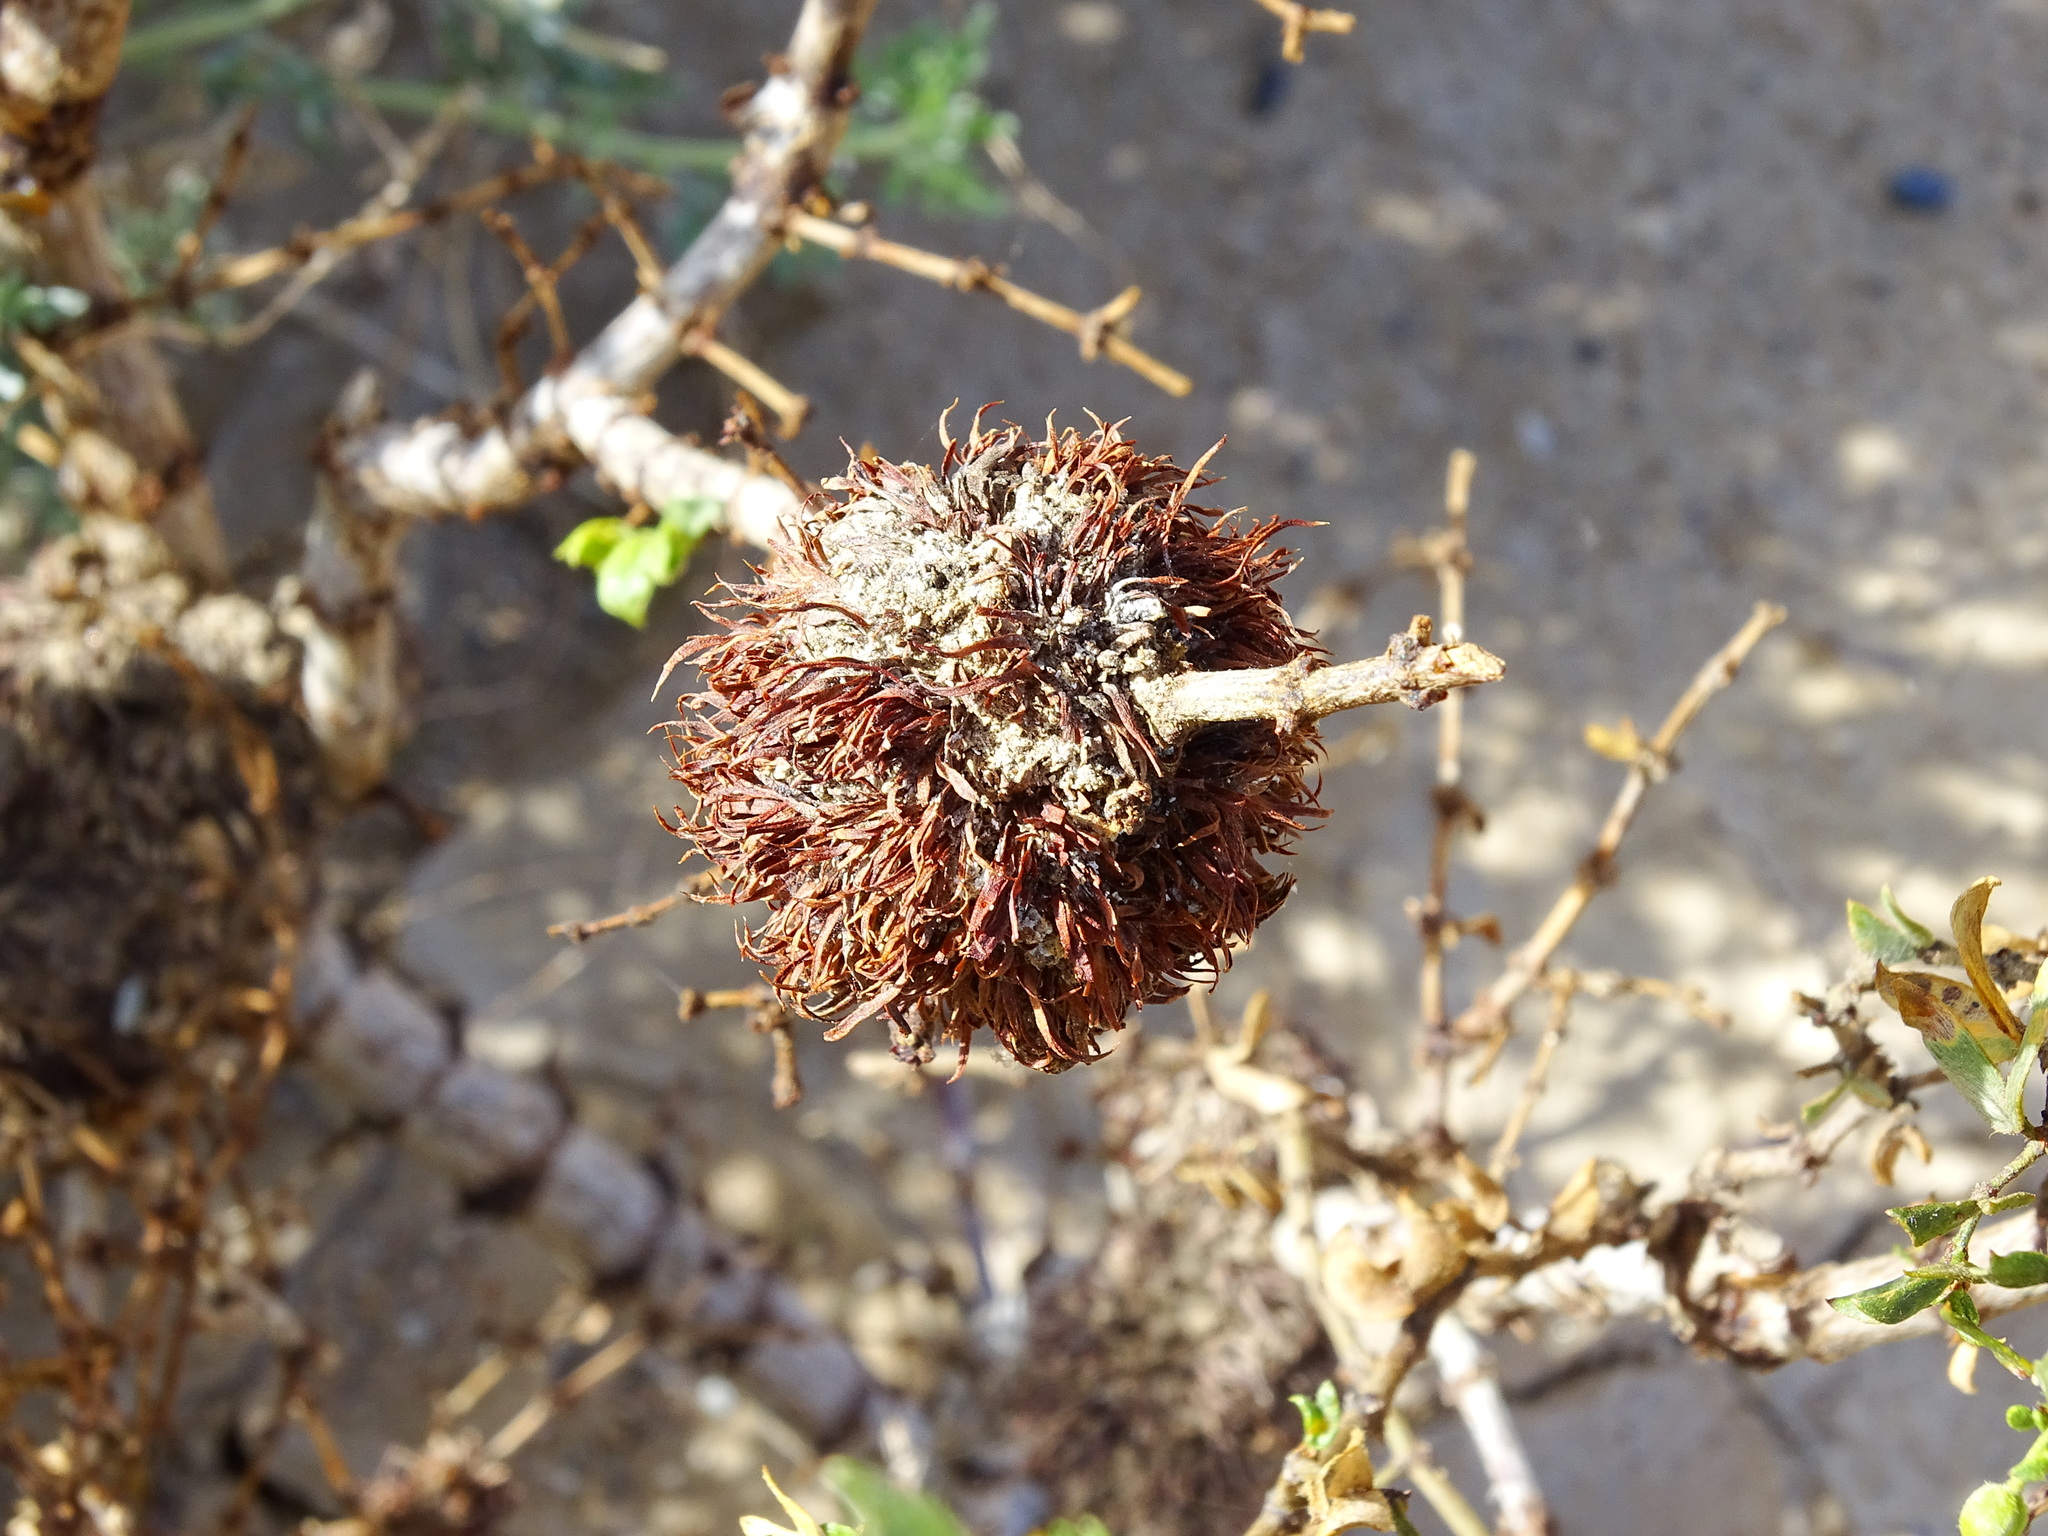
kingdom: Animalia
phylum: Arthropoda
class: Insecta
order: Diptera
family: Cecidomyiidae
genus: Asphondylia
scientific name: Asphondylia auripila
